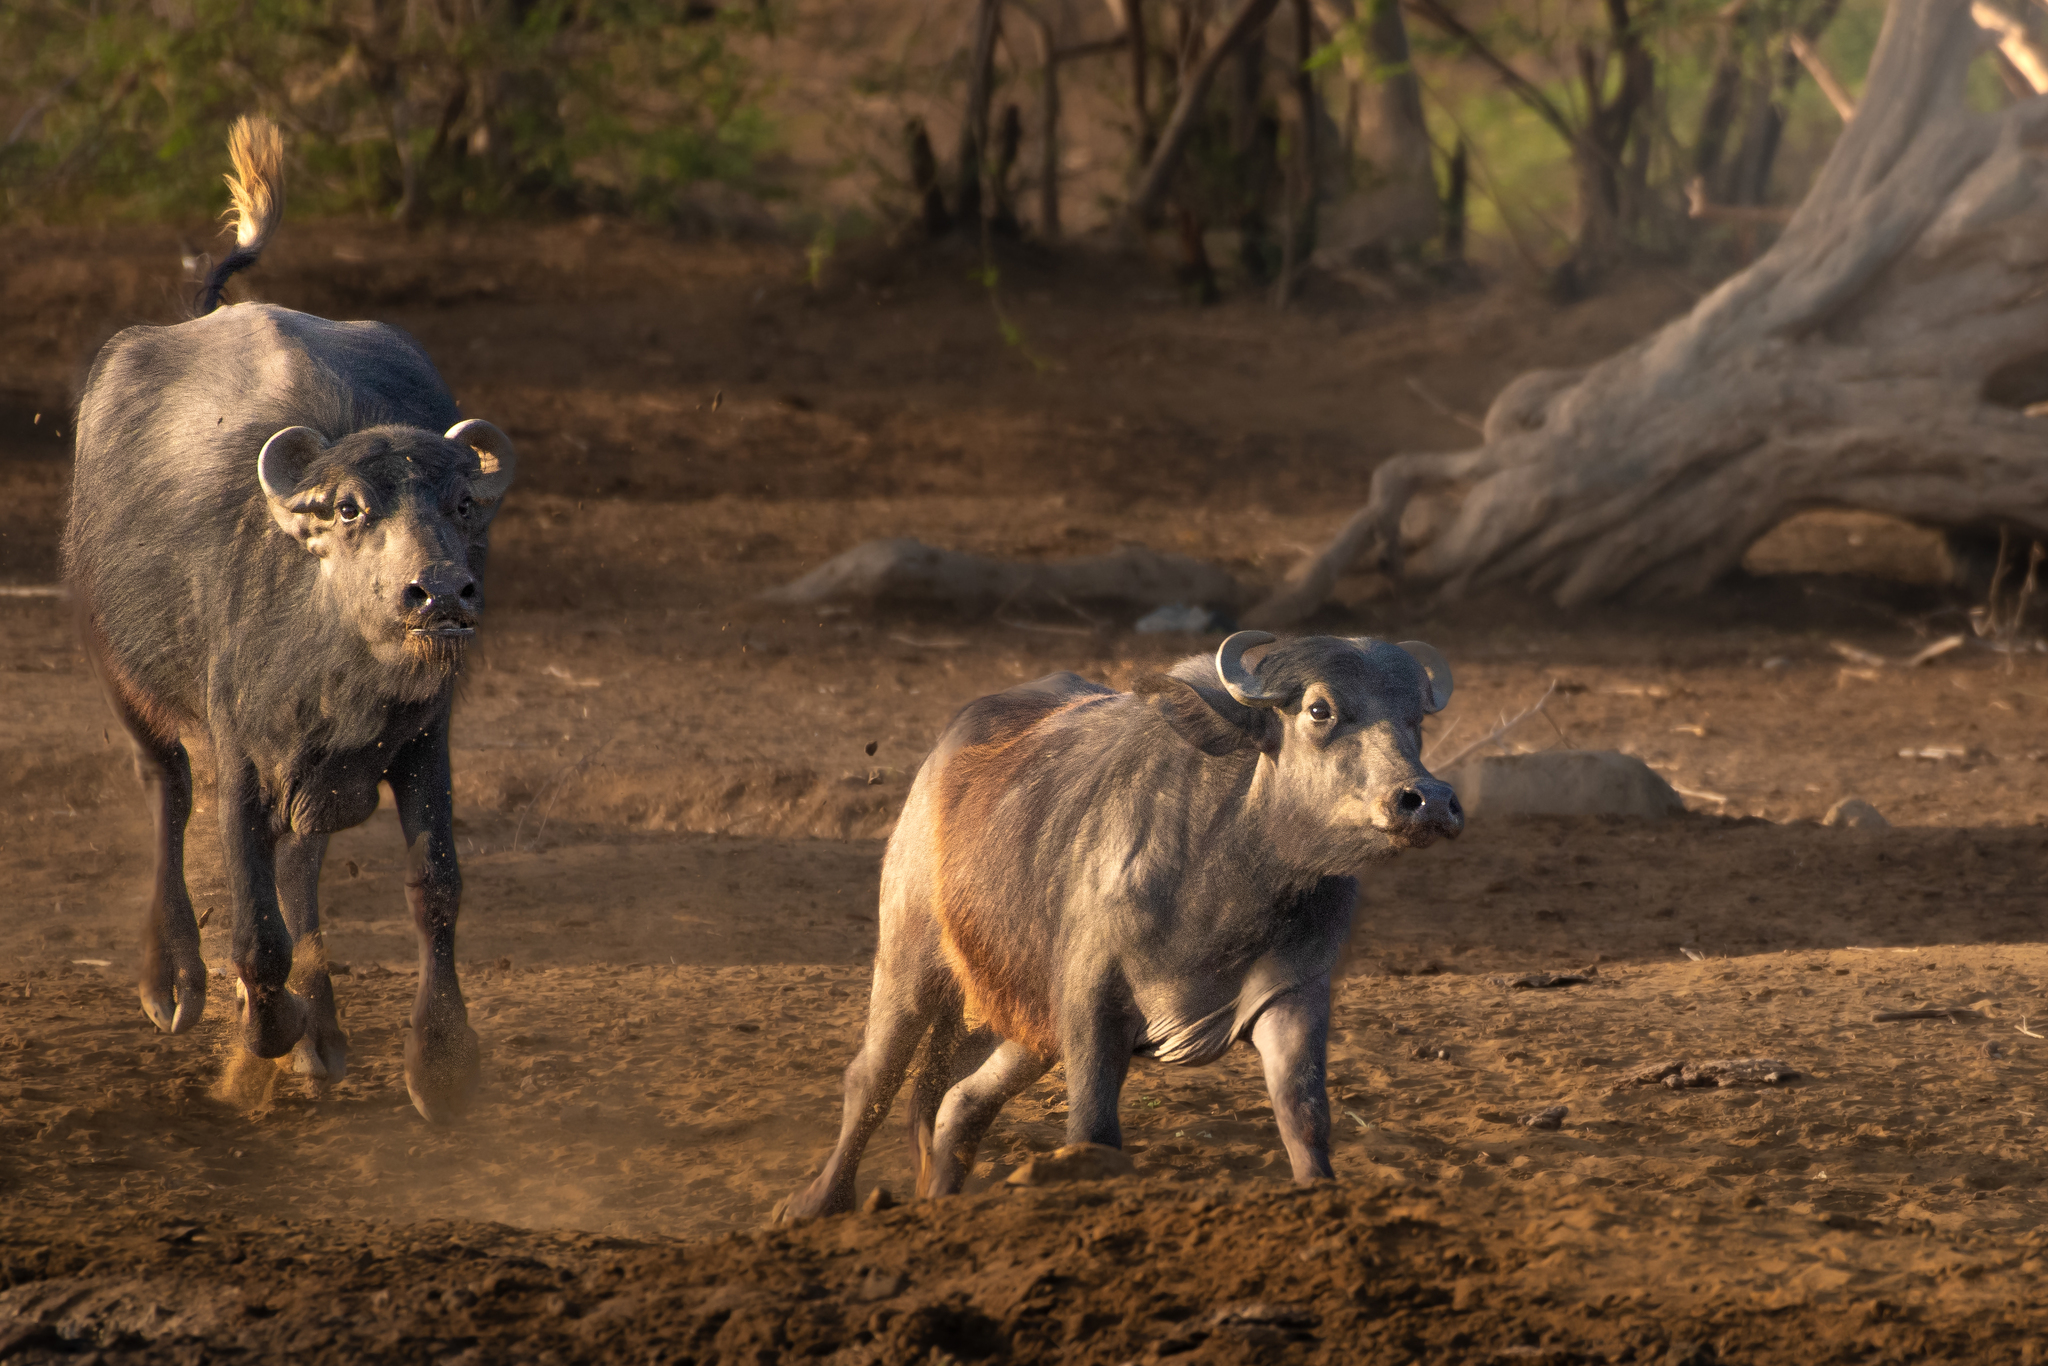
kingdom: Animalia
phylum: Chordata
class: Mammalia
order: Artiodactyla
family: Bovidae
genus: Bubalus
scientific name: Bubalus bubalis
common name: Water buffalo
